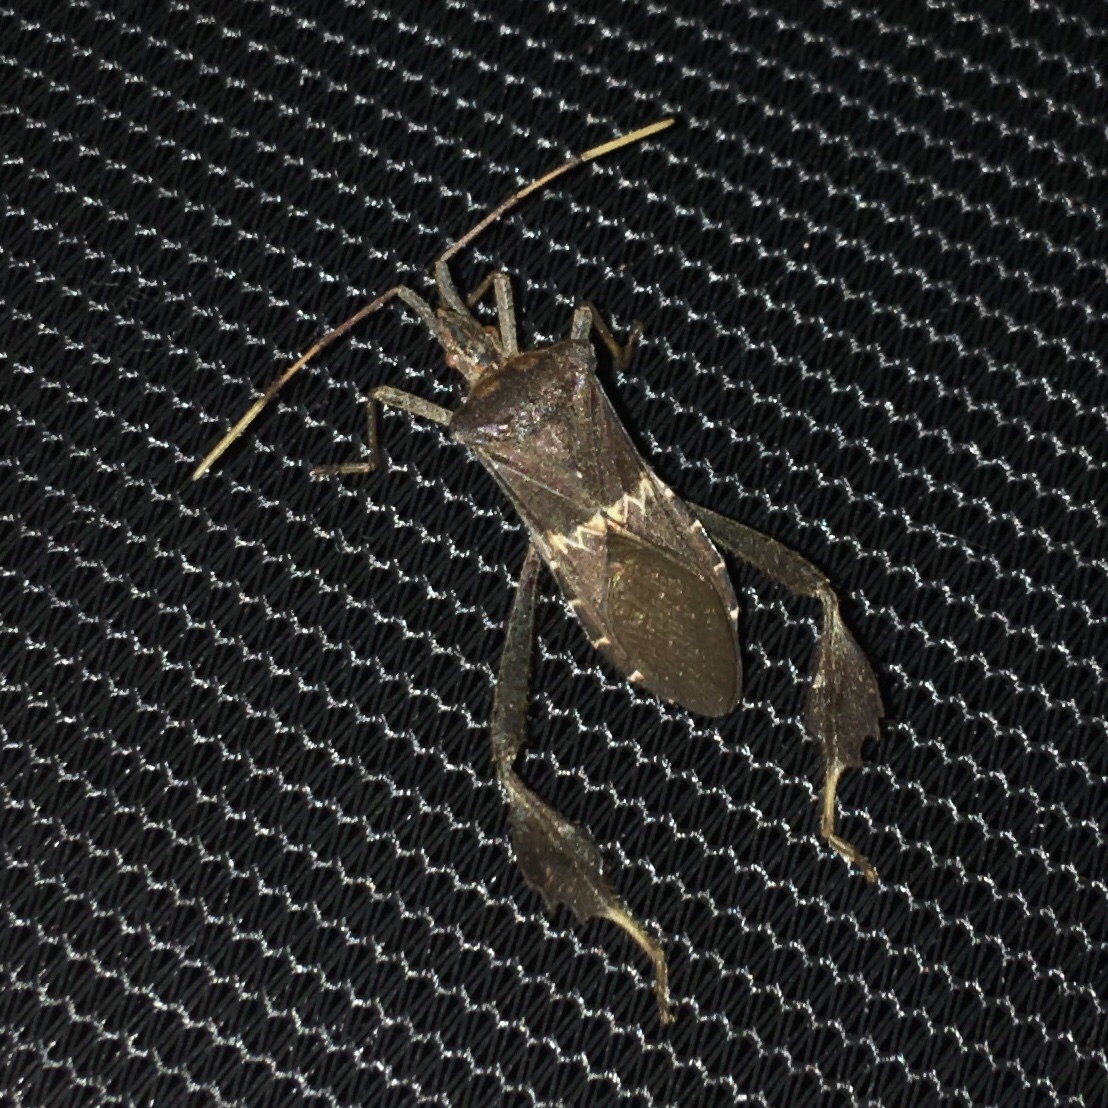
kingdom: Animalia
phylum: Arthropoda
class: Insecta
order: Hemiptera
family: Coreidae
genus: Leptoglossus
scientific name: Leptoglossus zonatus
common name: Large-legged bug
